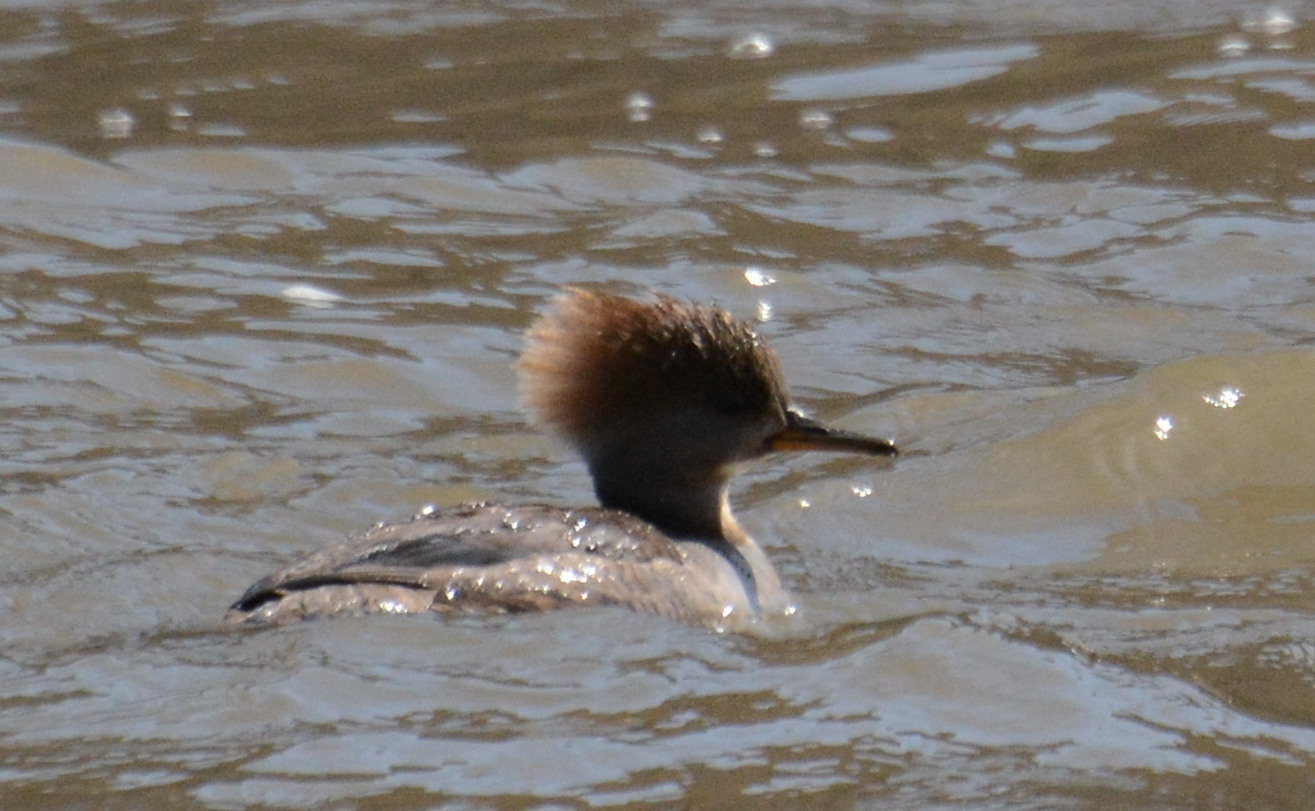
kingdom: Animalia
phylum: Chordata
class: Aves
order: Anseriformes
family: Anatidae
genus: Lophodytes
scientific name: Lophodytes cucullatus
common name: Hooded merganser
